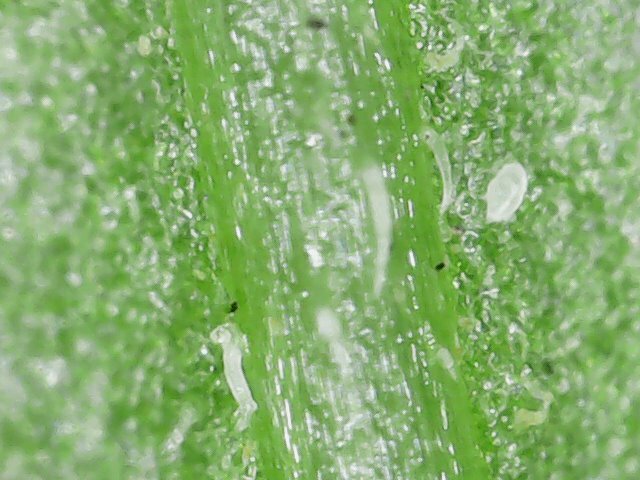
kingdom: Animalia
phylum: Arthropoda
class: Arachnida
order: Trombidiformes
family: Tarsonemidae
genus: Polyphagotarsonemus
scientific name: Polyphagotarsonemus latus
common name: Mite
